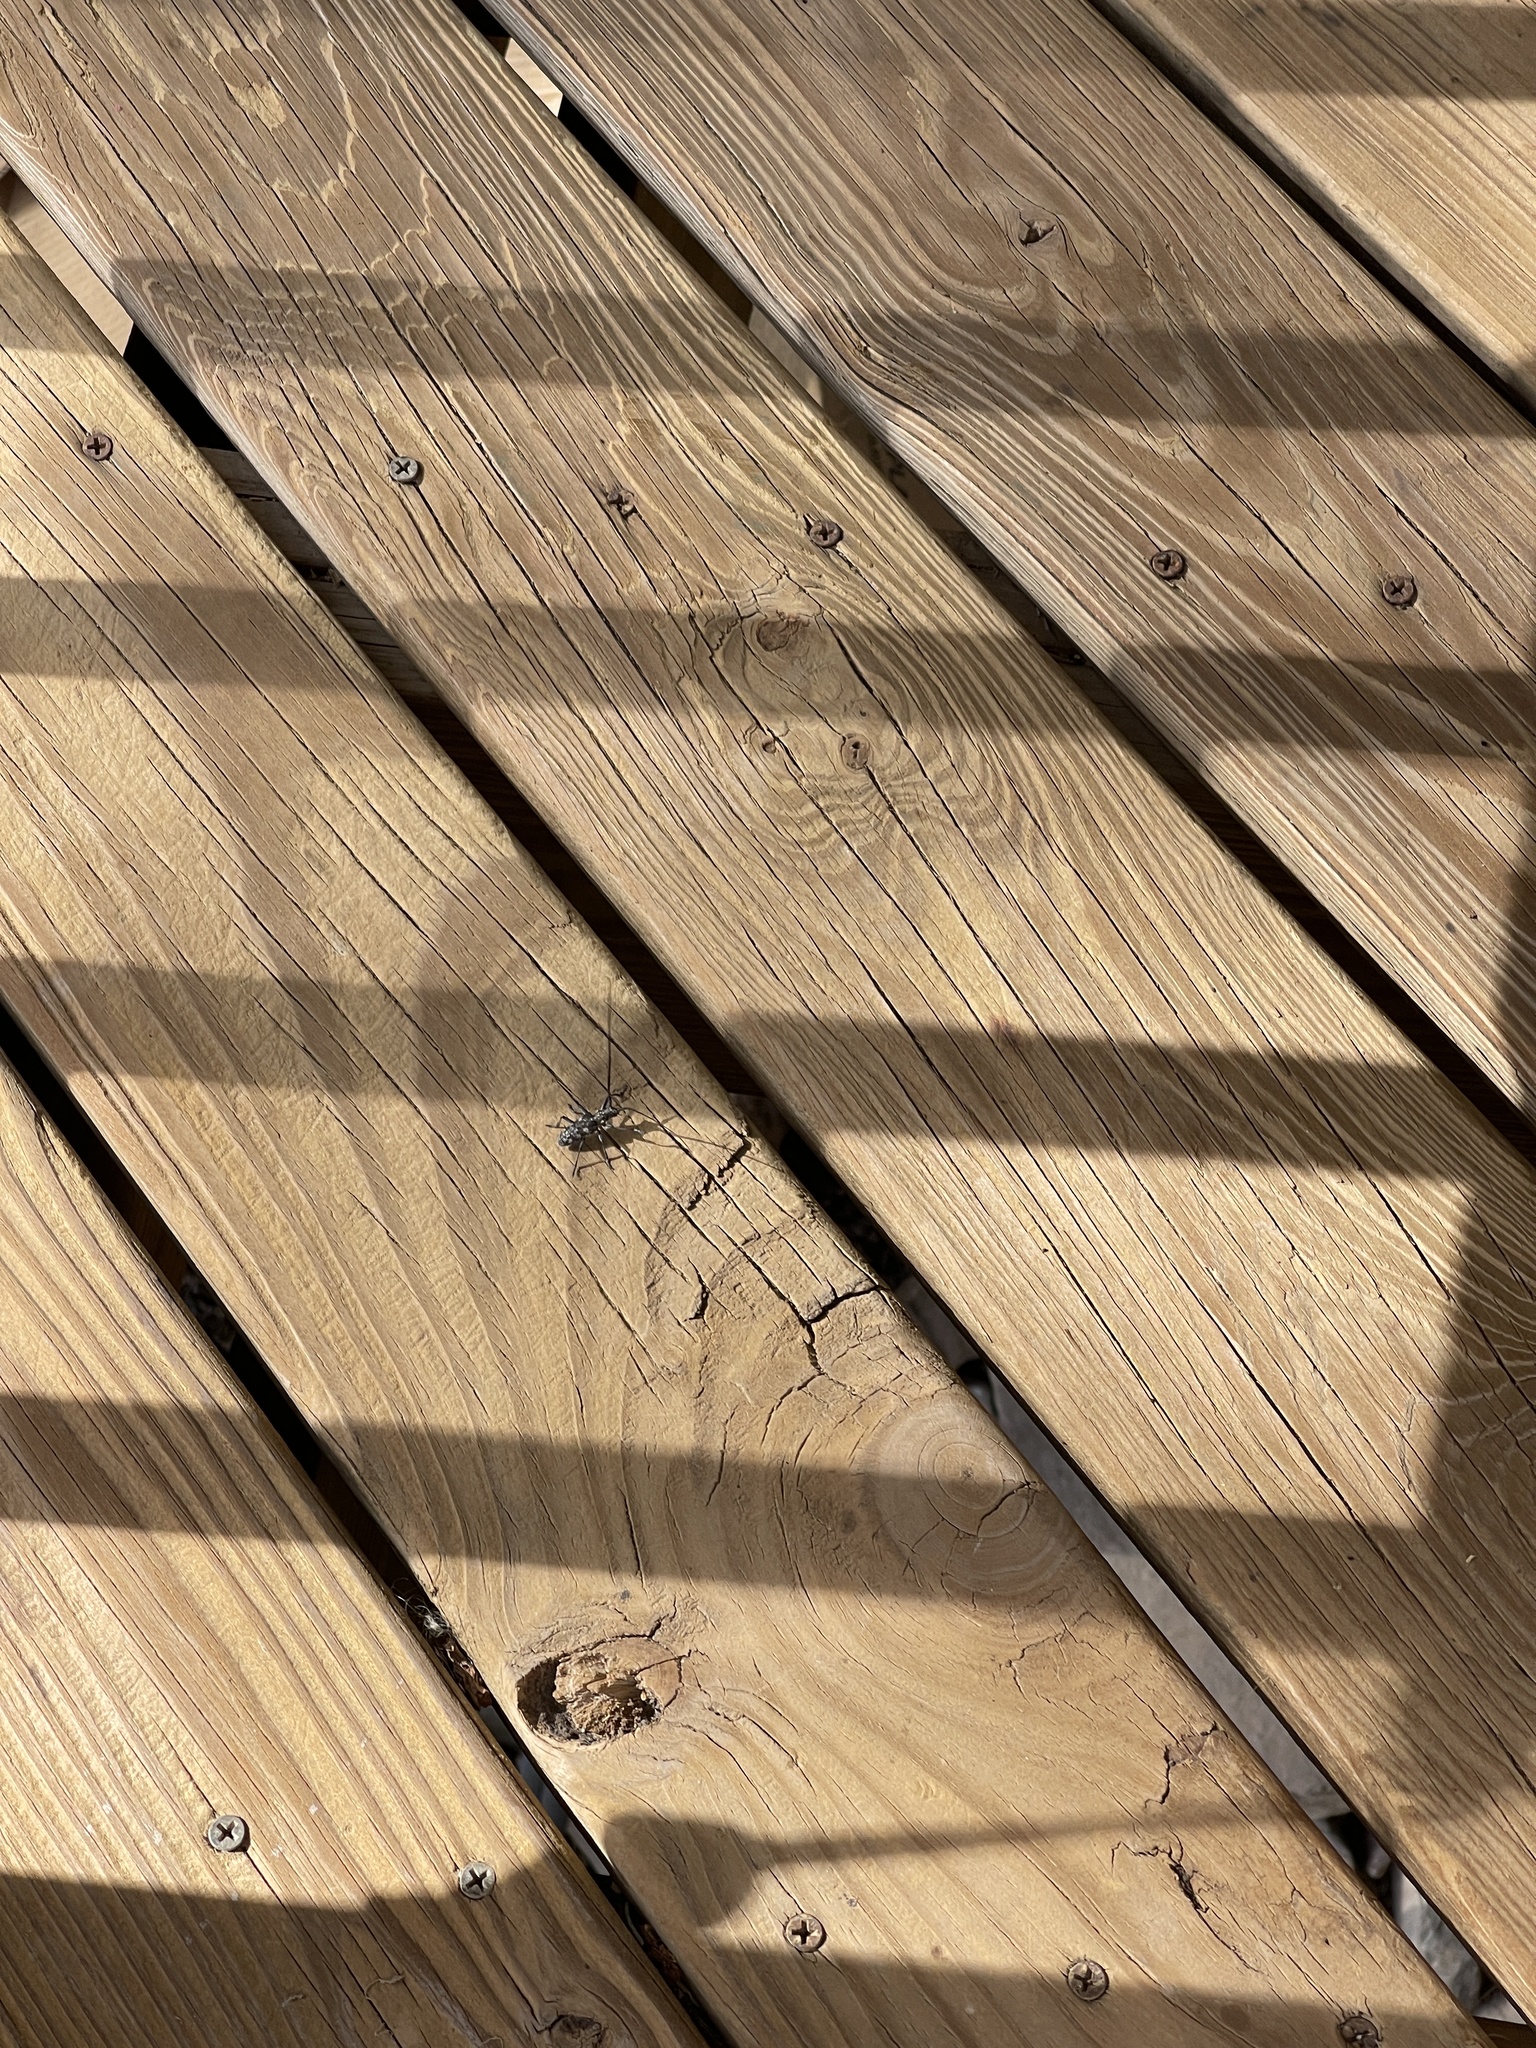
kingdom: Animalia
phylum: Arthropoda
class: Insecta
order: Coleoptera
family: Cerambycidae
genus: Monochamus
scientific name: Monochamus clamator
